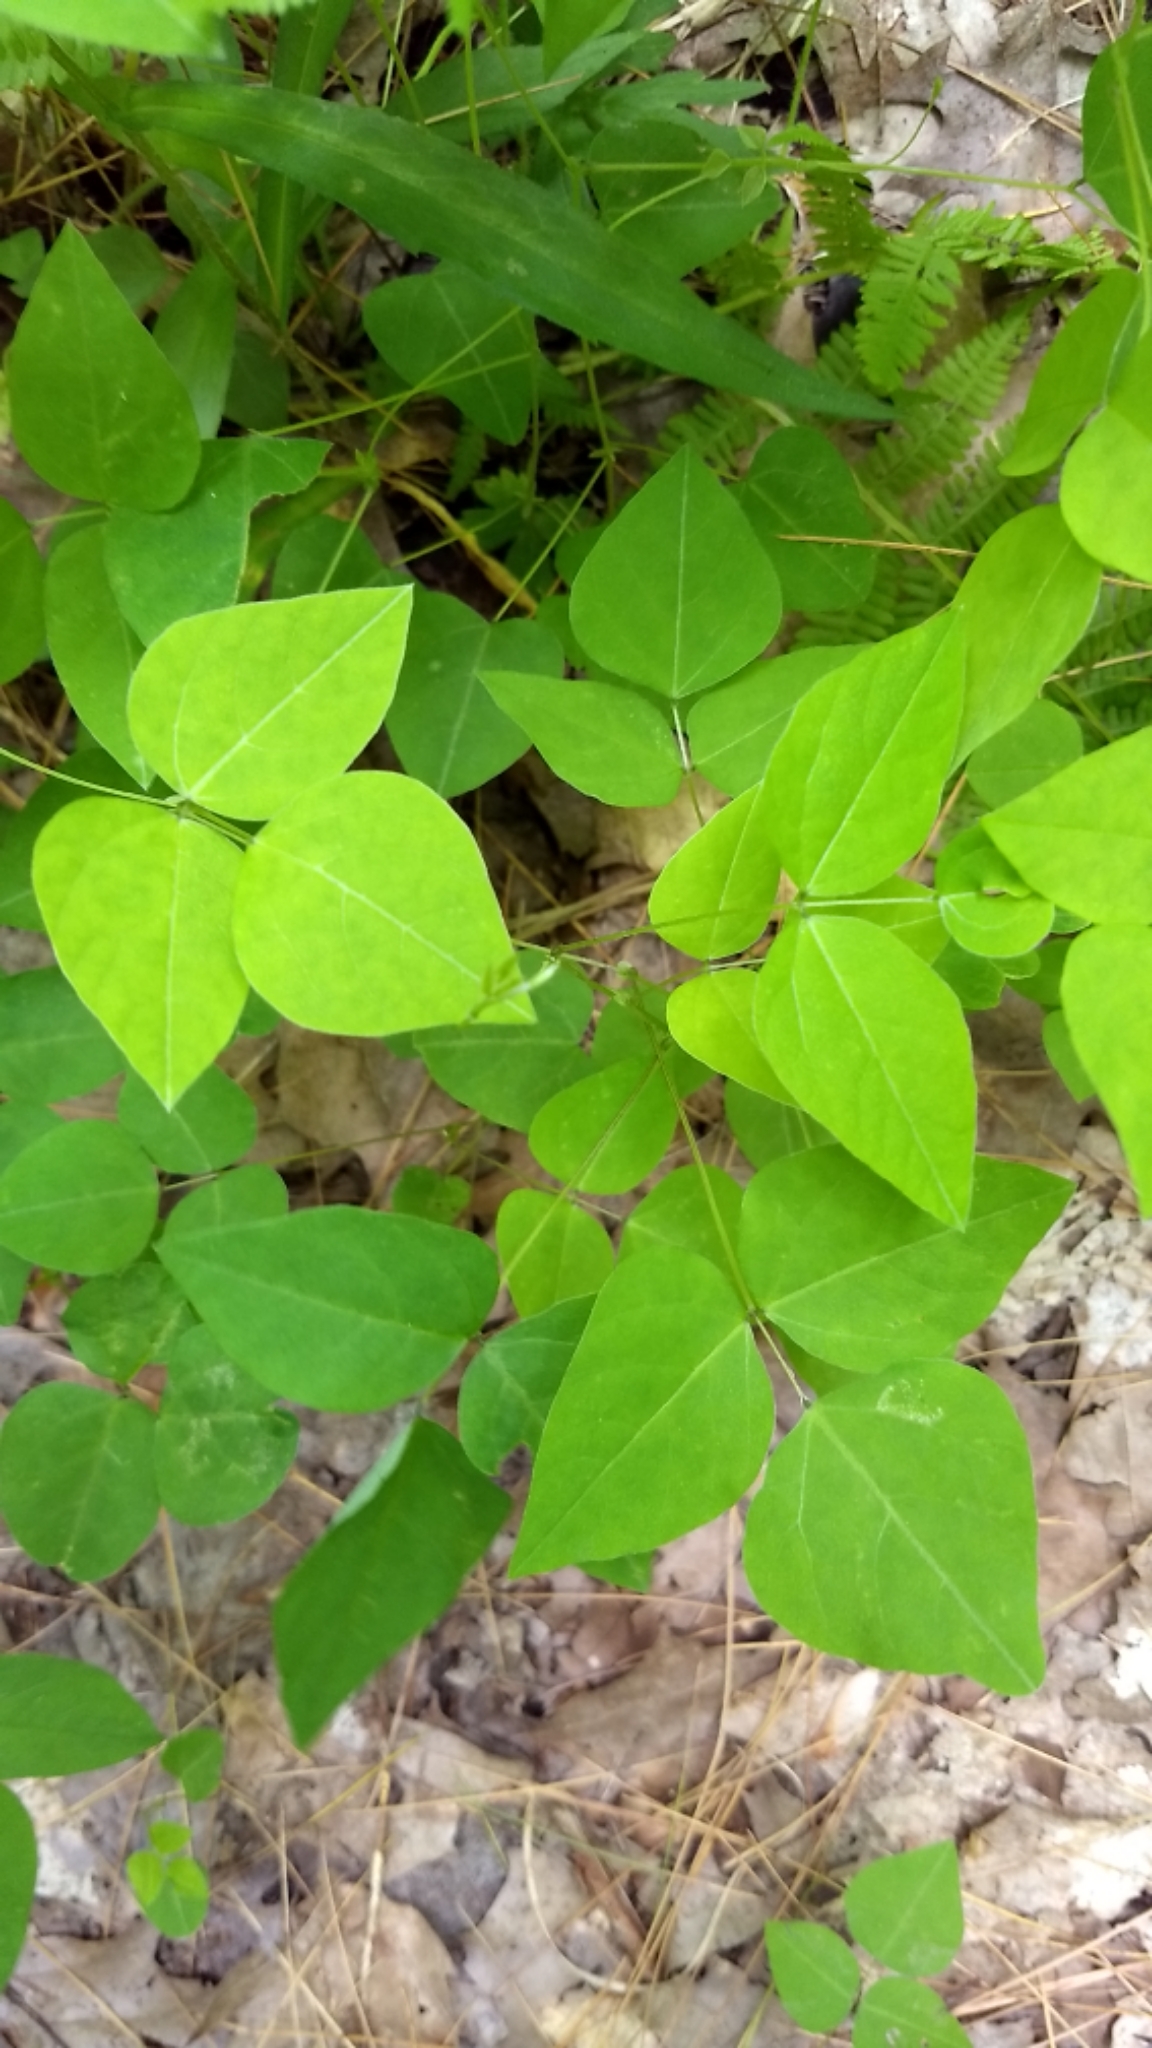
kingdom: Plantae
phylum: Tracheophyta
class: Magnoliopsida
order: Fabales
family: Fabaceae
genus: Amphicarpaea
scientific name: Amphicarpaea bracteata
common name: American hog peanut
